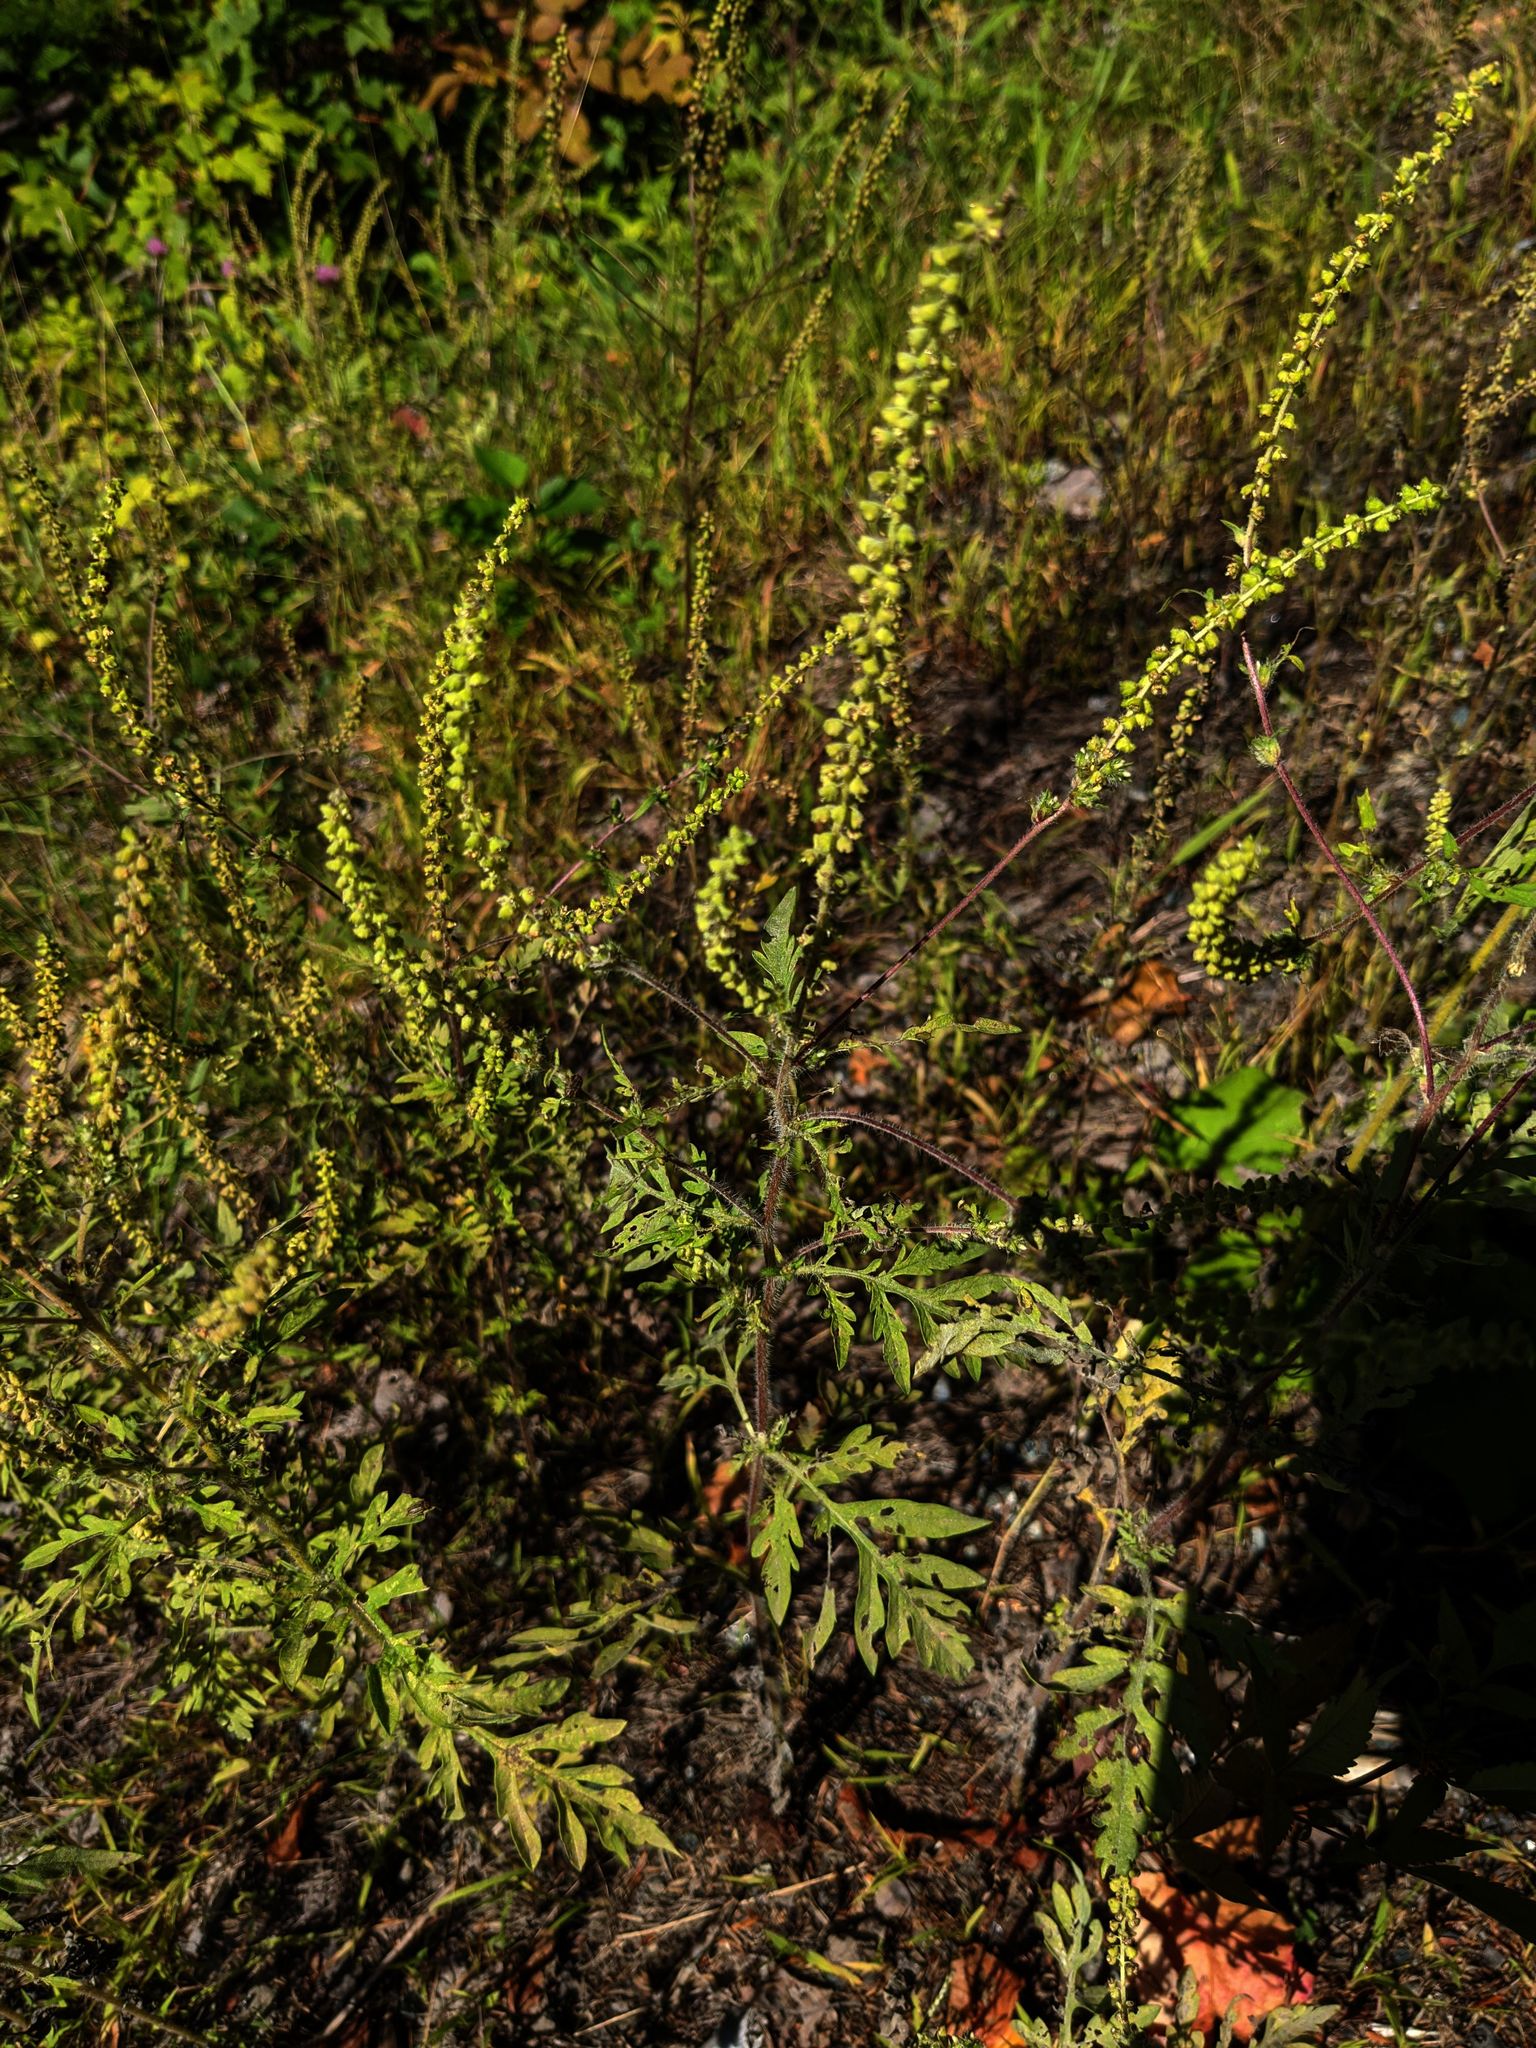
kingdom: Plantae
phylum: Tracheophyta
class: Magnoliopsida
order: Asterales
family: Asteraceae
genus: Ambrosia
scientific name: Ambrosia artemisiifolia
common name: Annual ragweed
